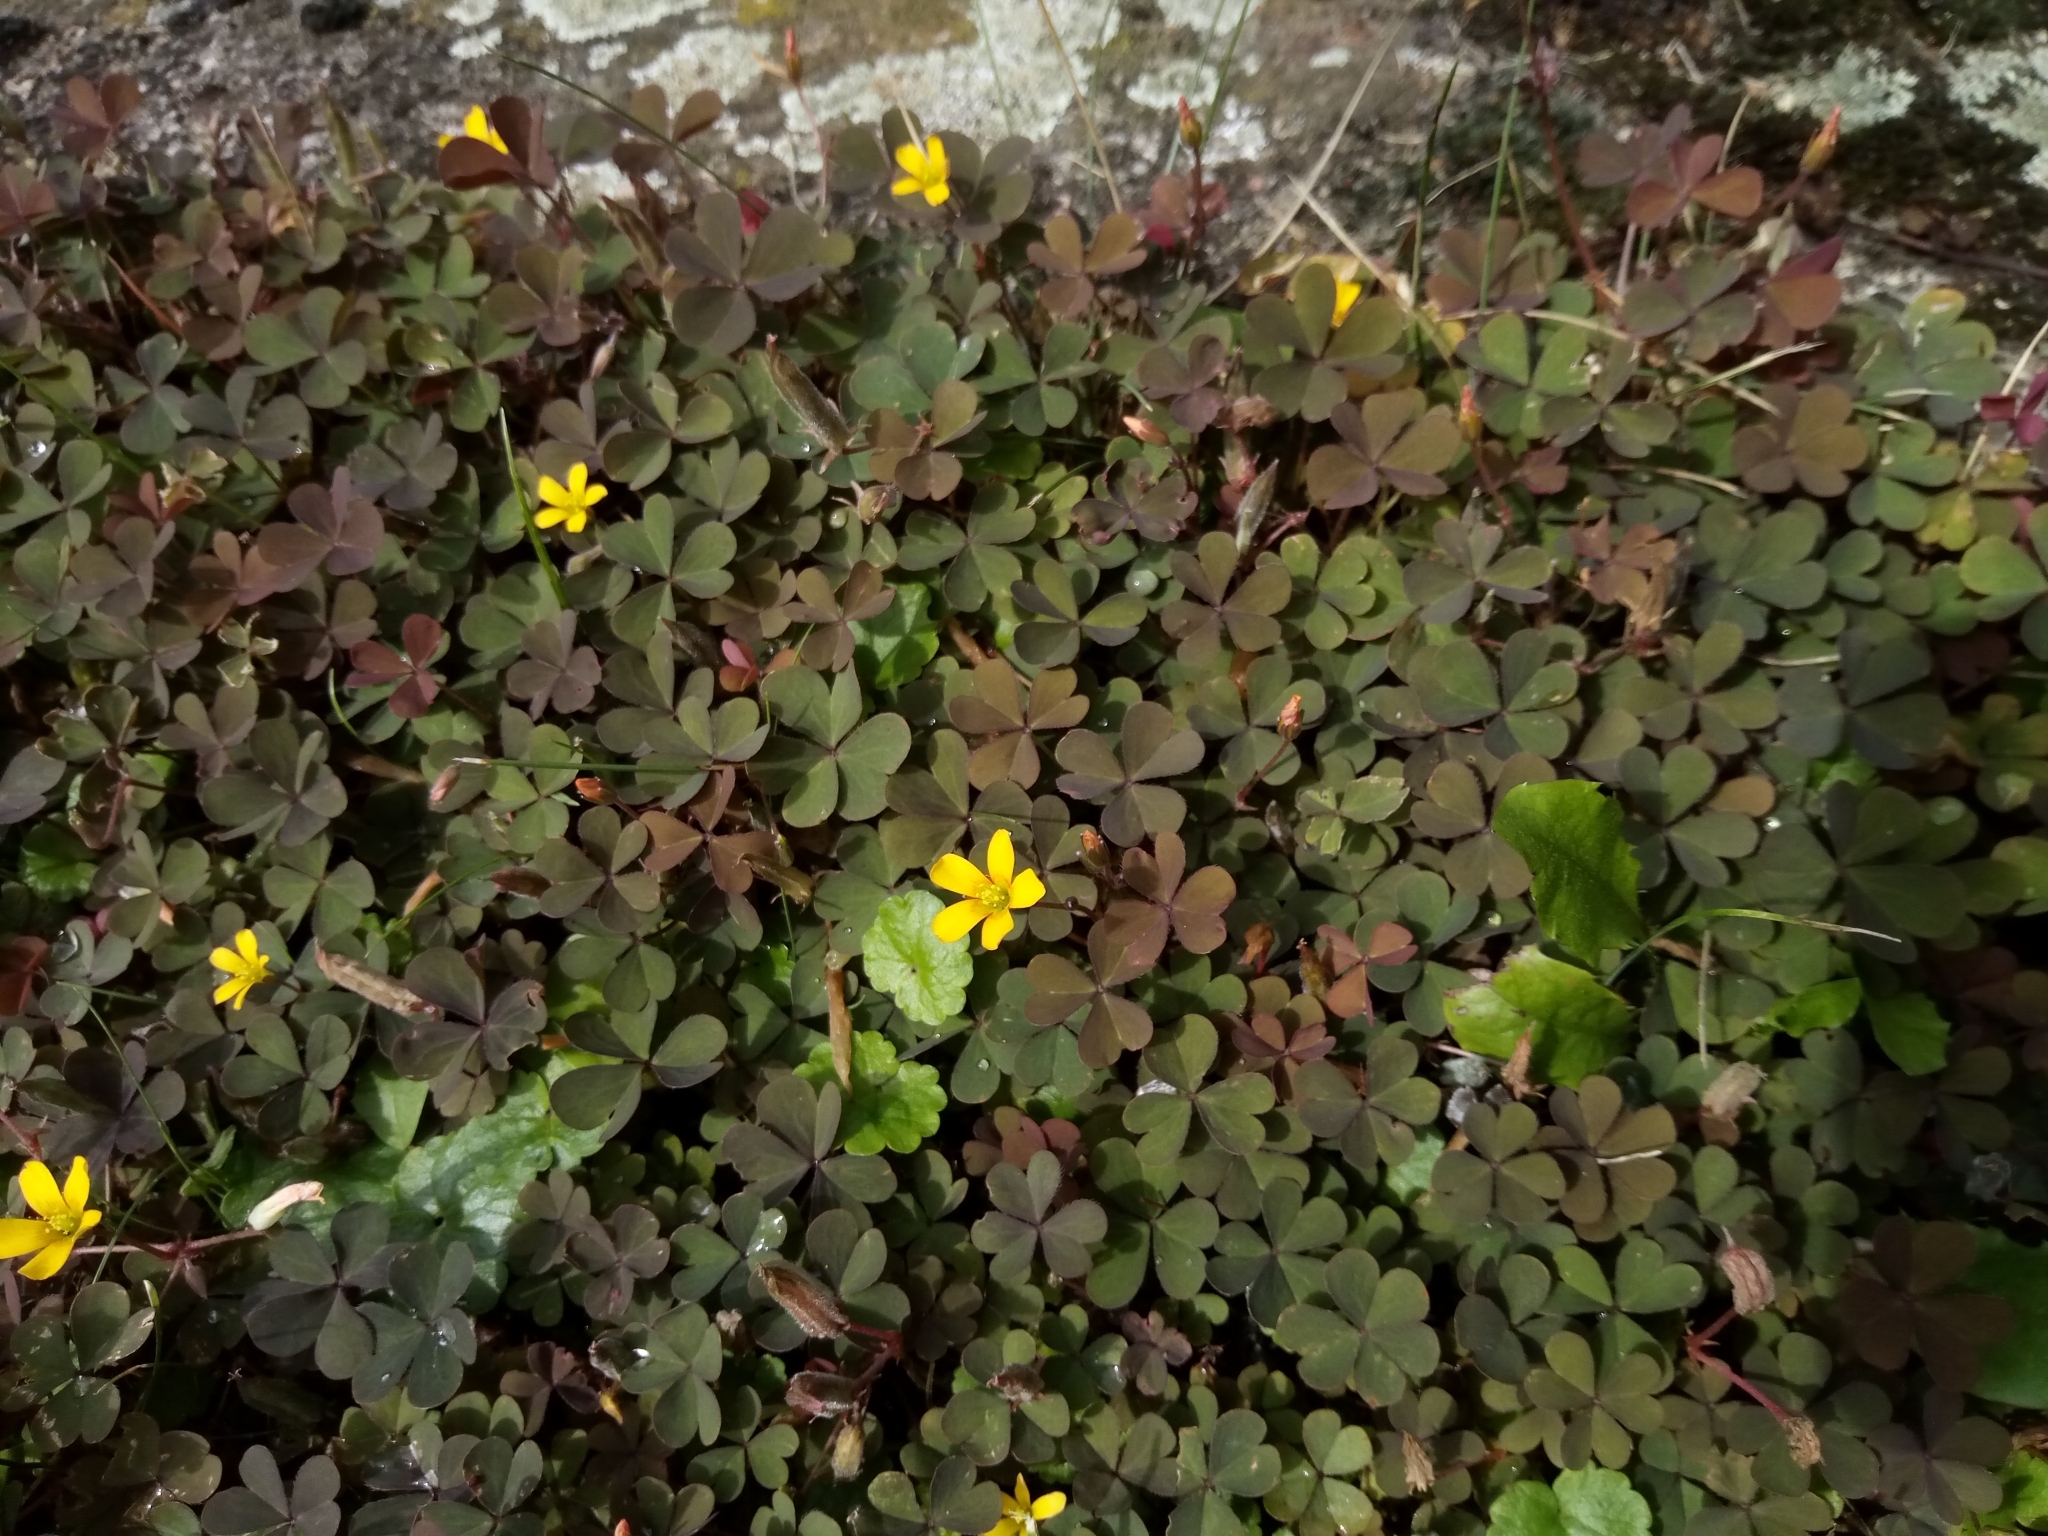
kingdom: Plantae
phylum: Tracheophyta
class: Magnoliopsida
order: Oxalidales
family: Oxalidaceae
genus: Oxalis
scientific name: Oxalis corniculata
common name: Procumbent yellow-sorrel
